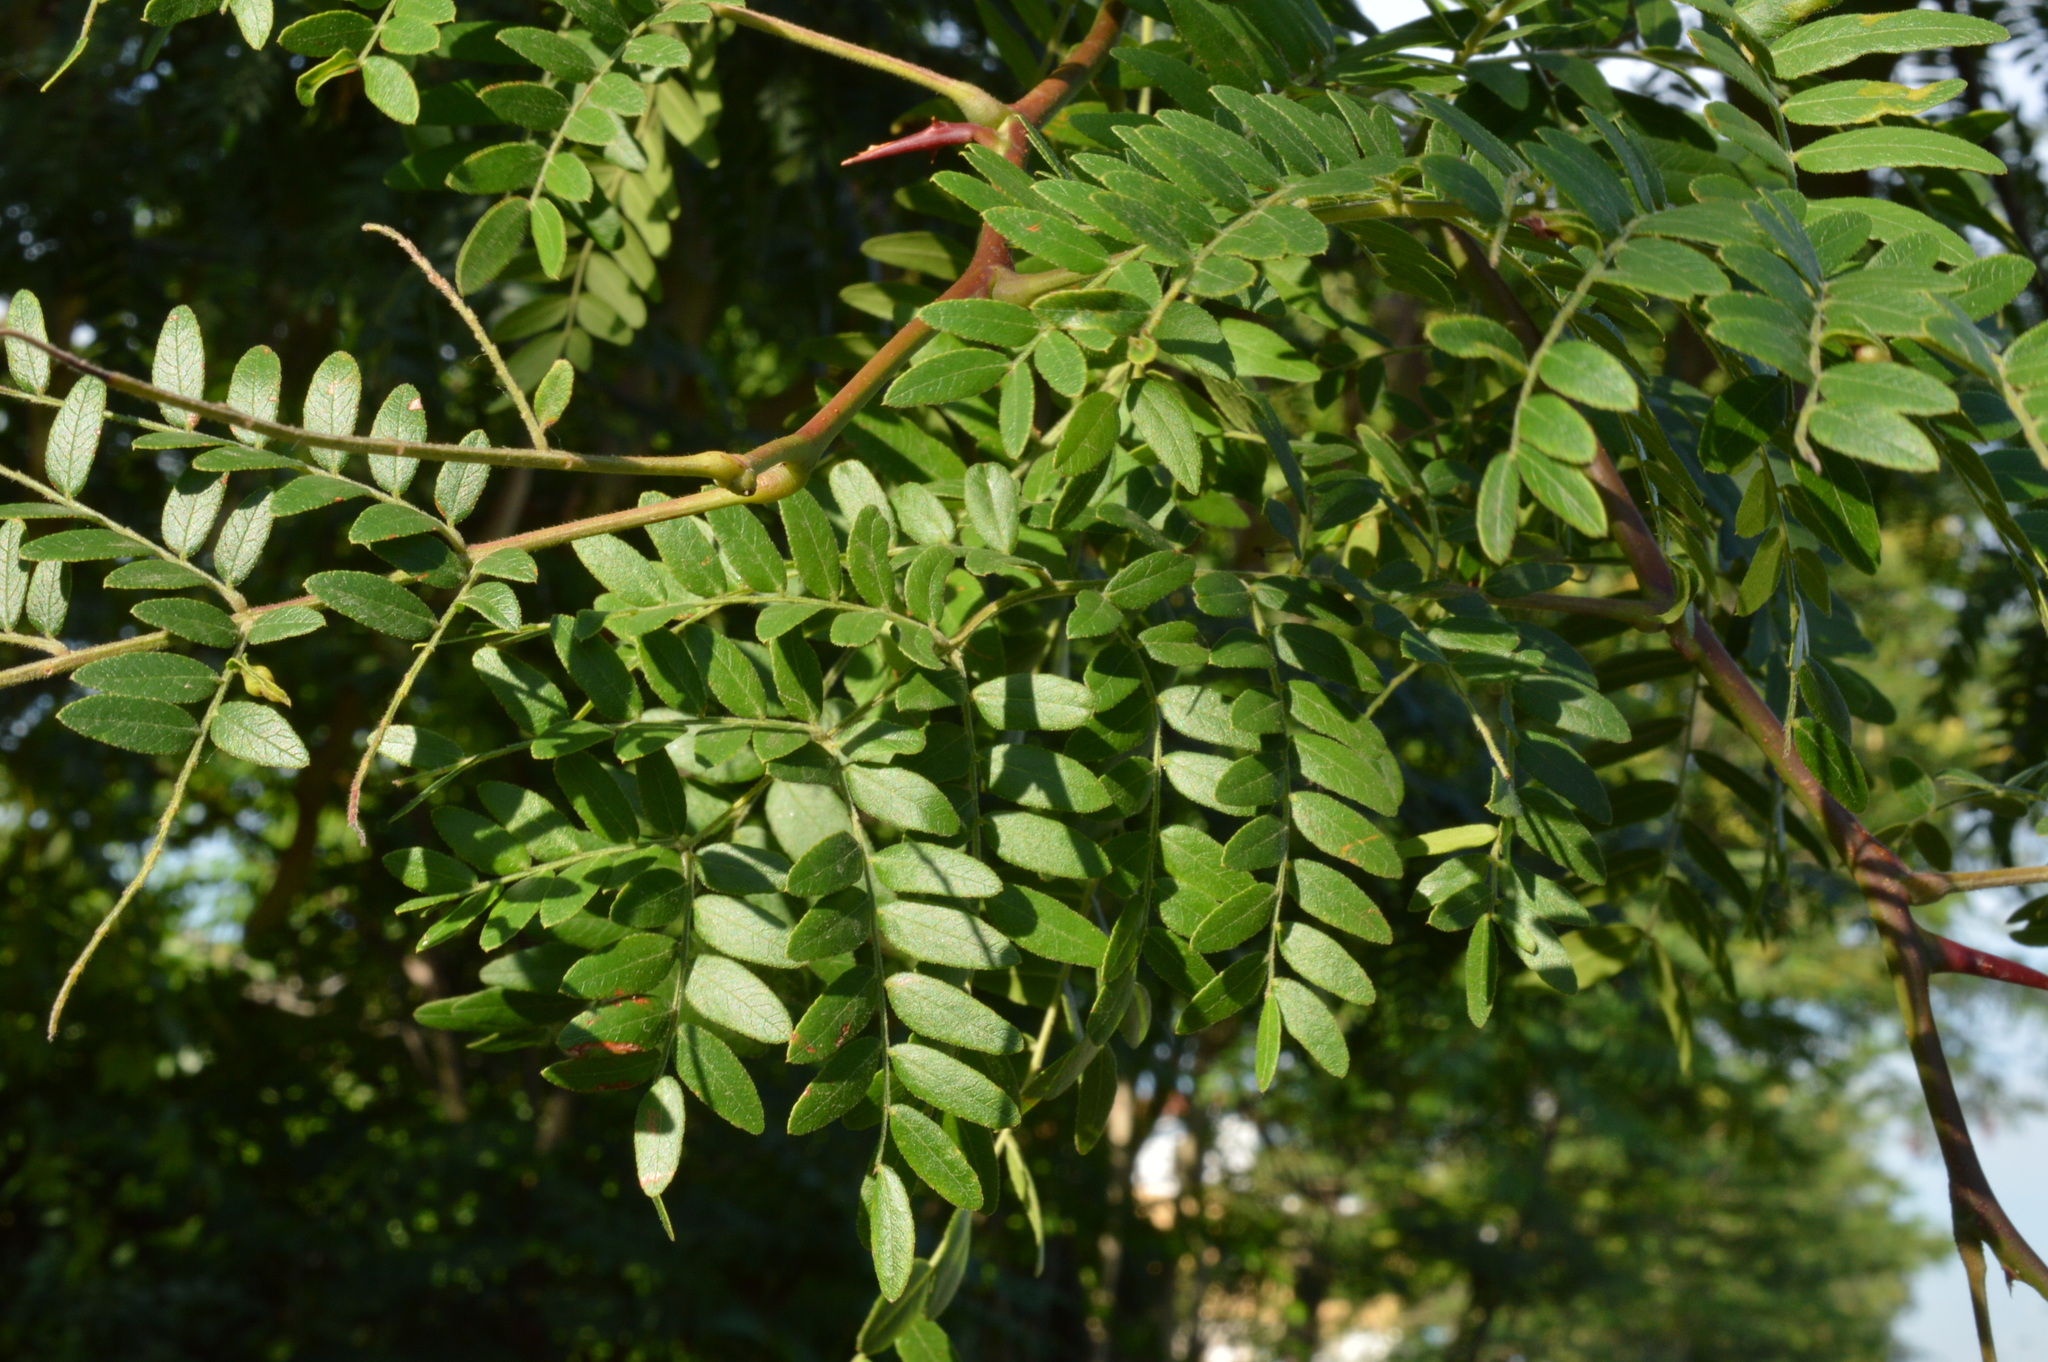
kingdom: Plantae
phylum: Tracheophyta
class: Magnoliopsida
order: Fabales
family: Fabaceae
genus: Gleditsia
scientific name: Gleditsia triacanthos
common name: Common honeylocust
